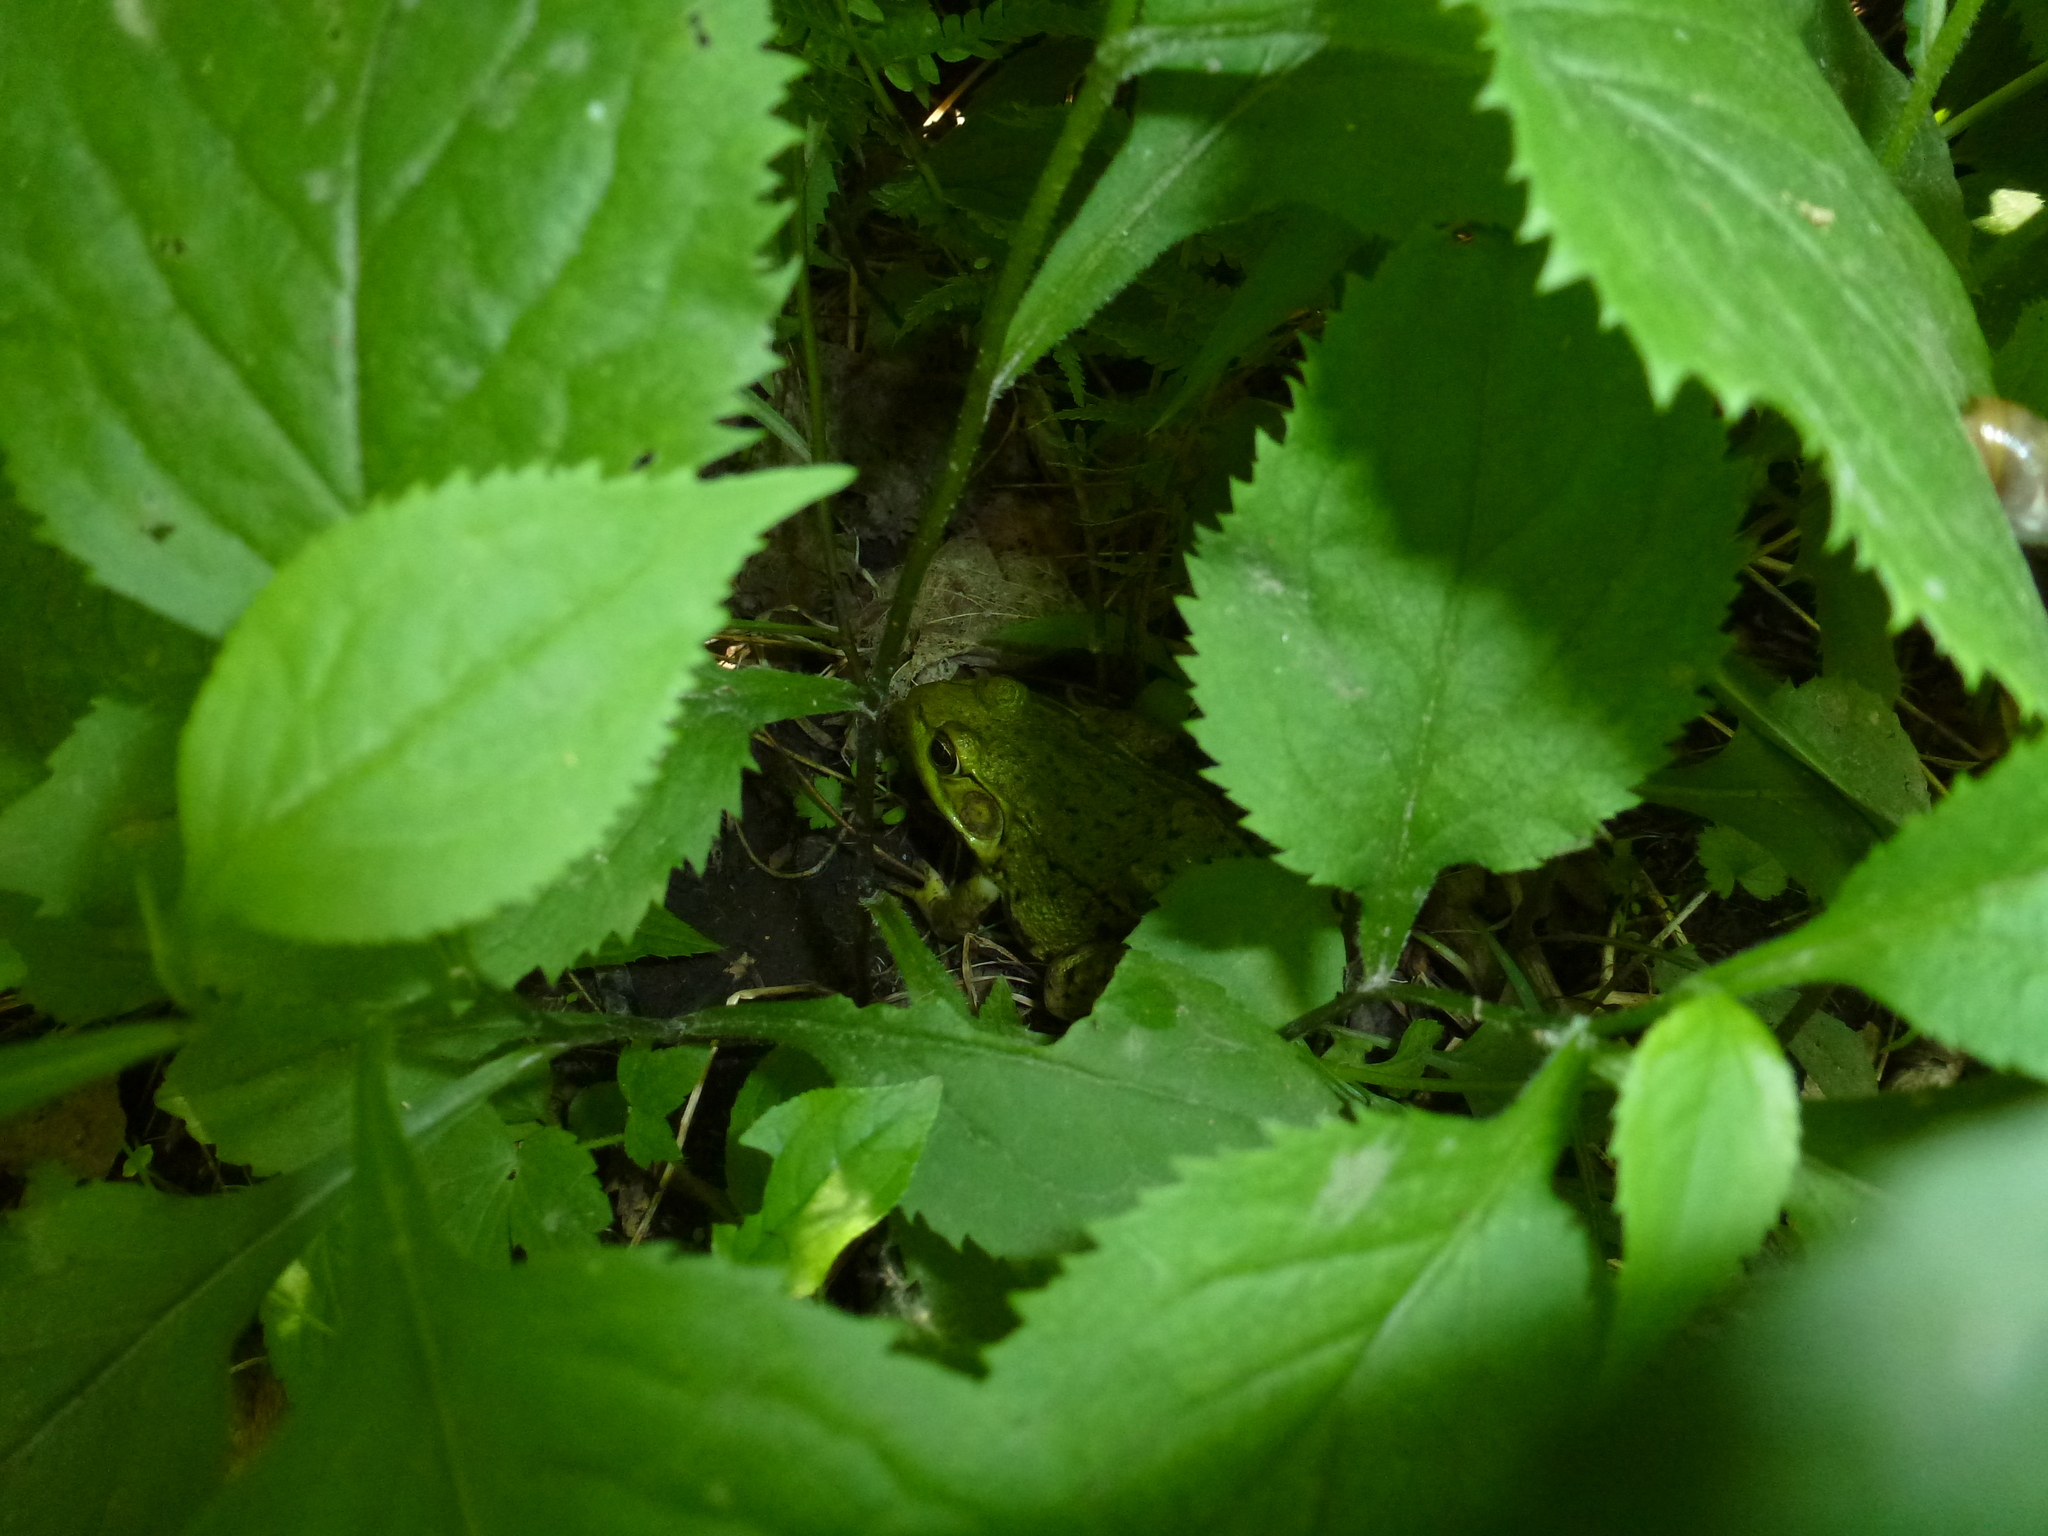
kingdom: Animalia
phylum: Chordata
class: Amphibia
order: Anura
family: Ranidae
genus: Lithobates
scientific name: Lithobates clamitans
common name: Green frog
